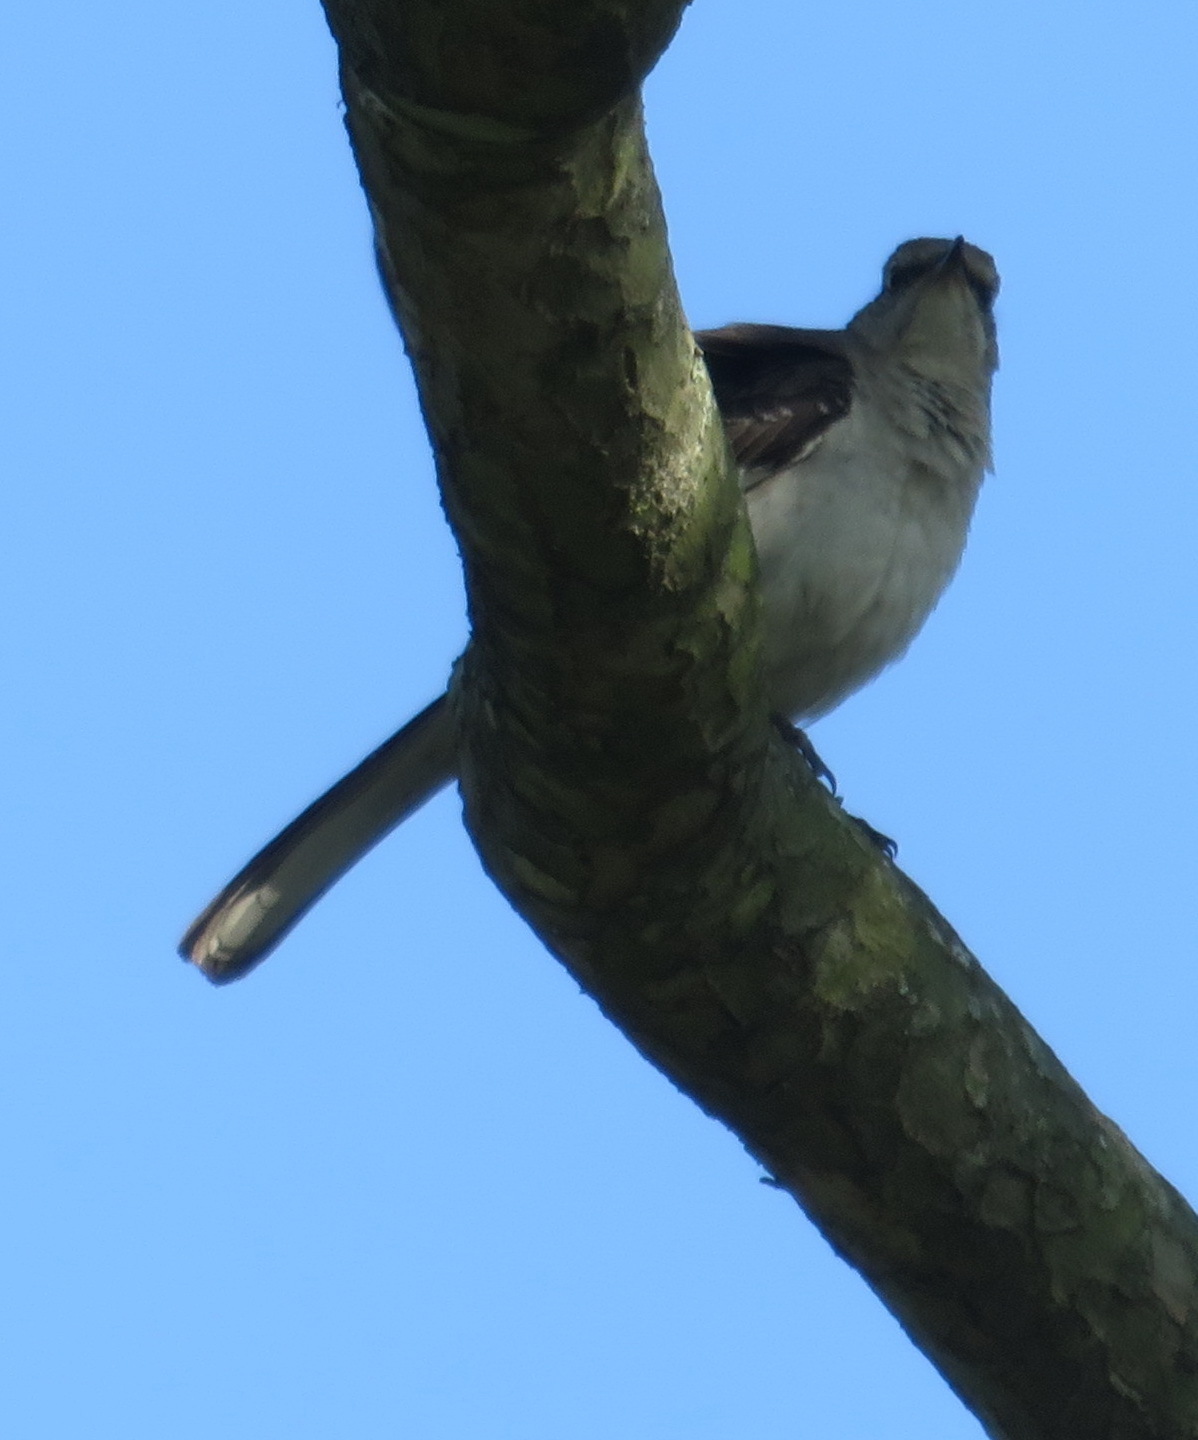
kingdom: Animalia
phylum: Chordata
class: Aves
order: Passeriformes
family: Mimidae
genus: Mimus
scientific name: Mimus polyglottos
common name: Northern mockingbird
